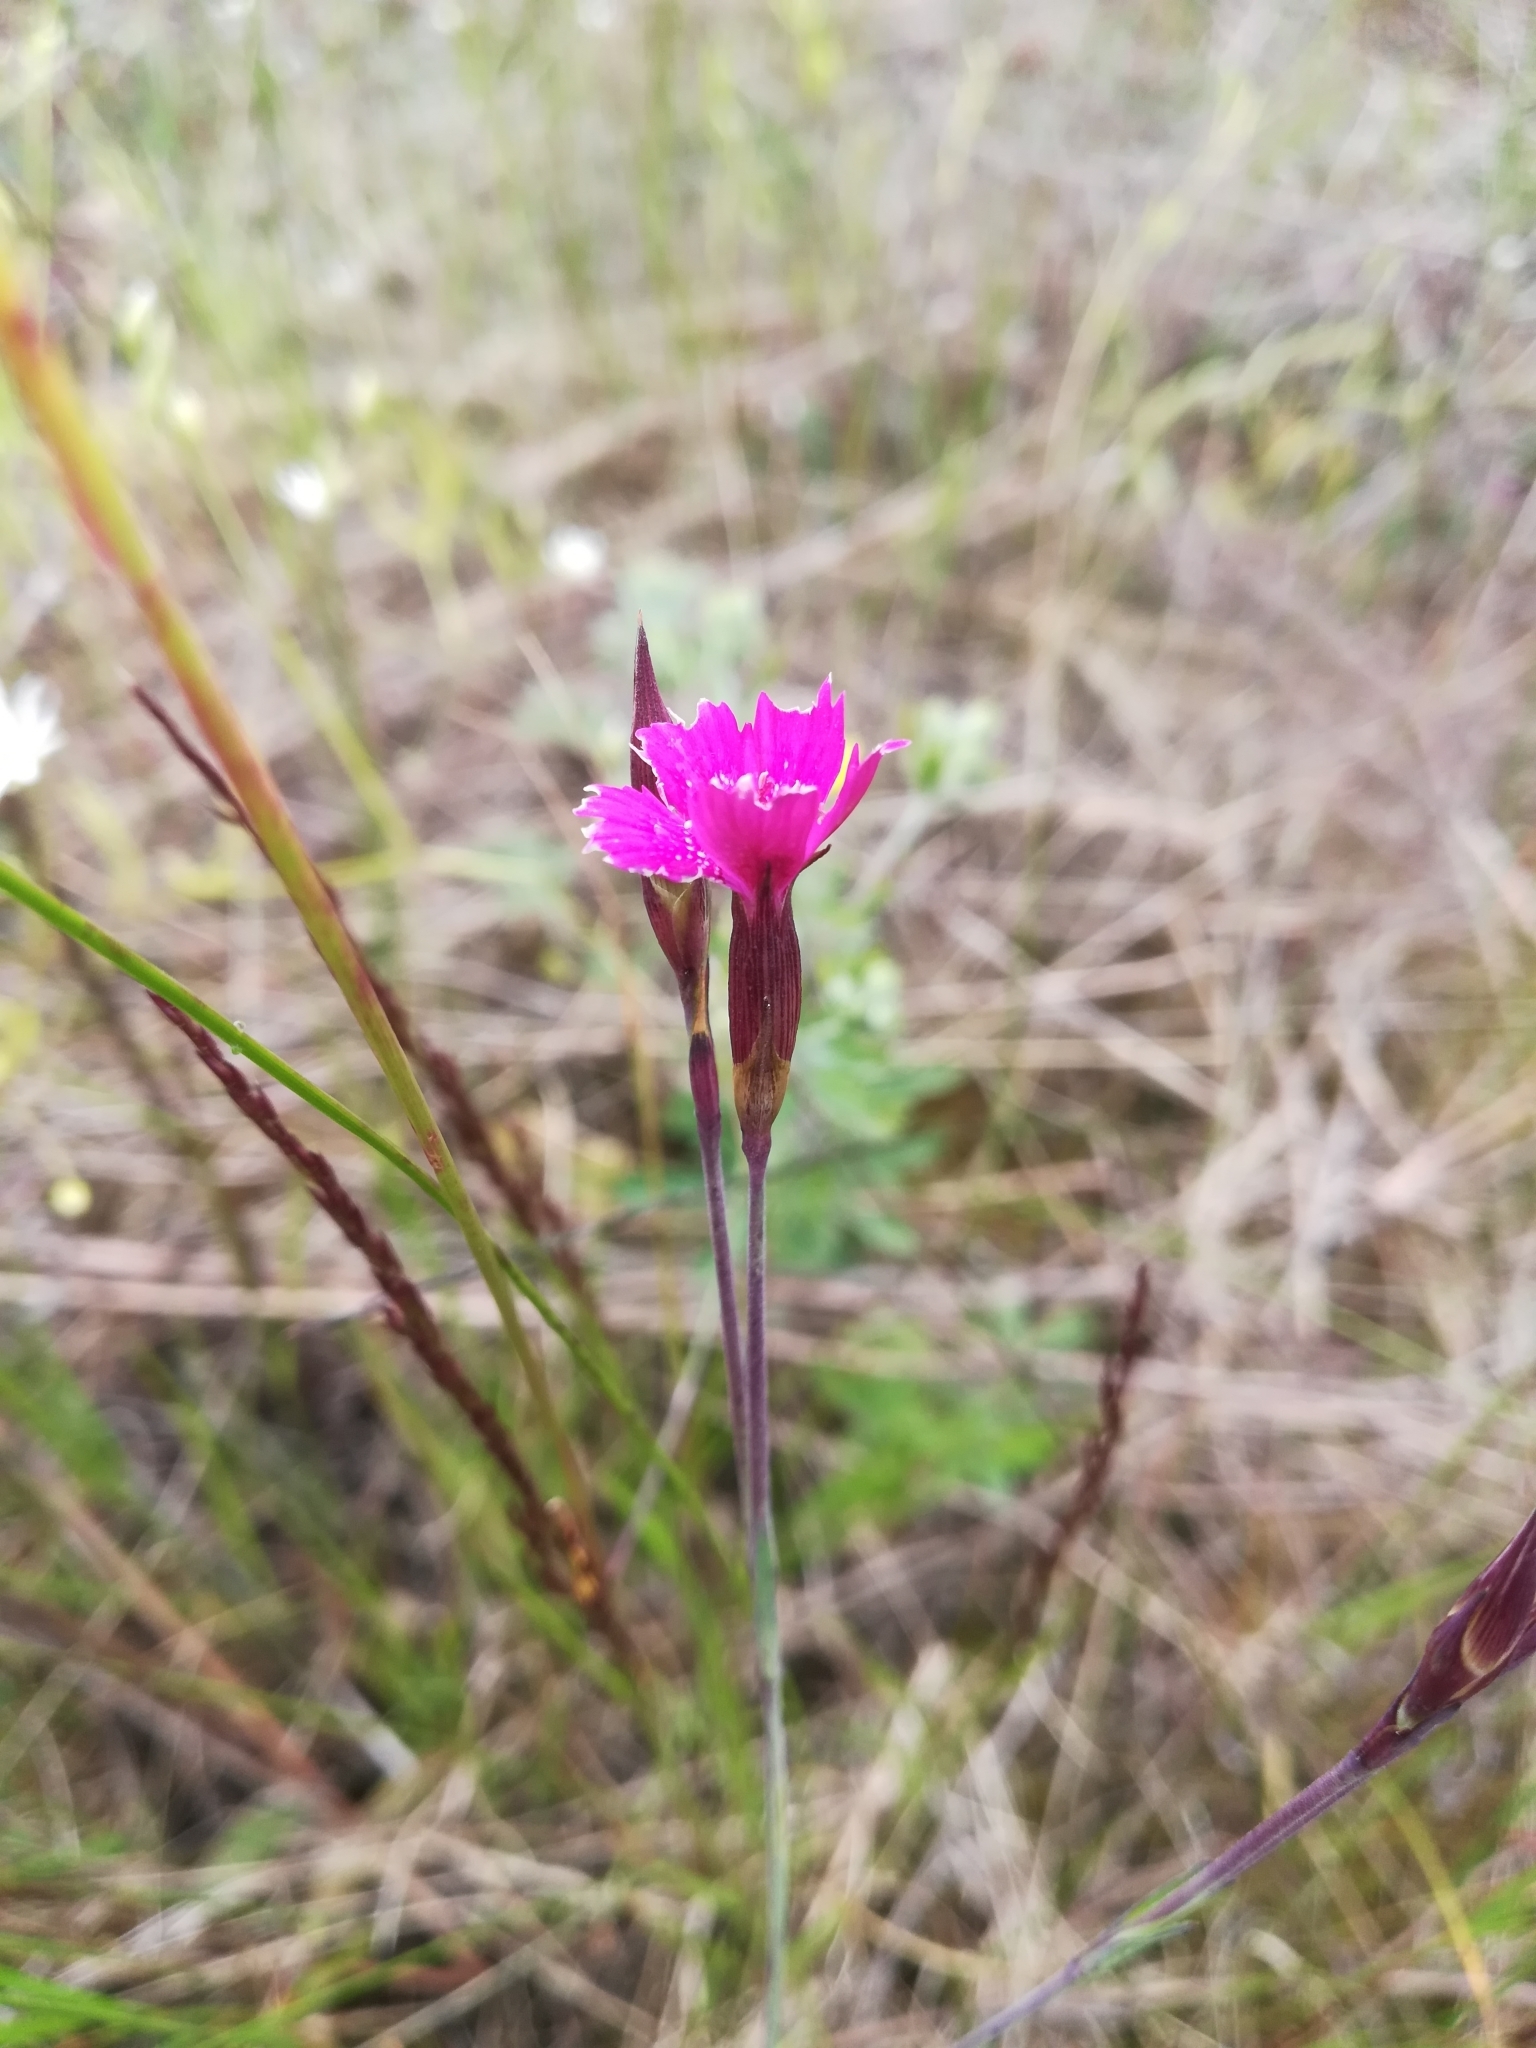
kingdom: Plantae
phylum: Tracheophyta
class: Magnoliopsida
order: Caryophyllales
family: Caryophyllaceae
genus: Dianthus
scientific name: Dianthus deltoides
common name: Maiden pink
